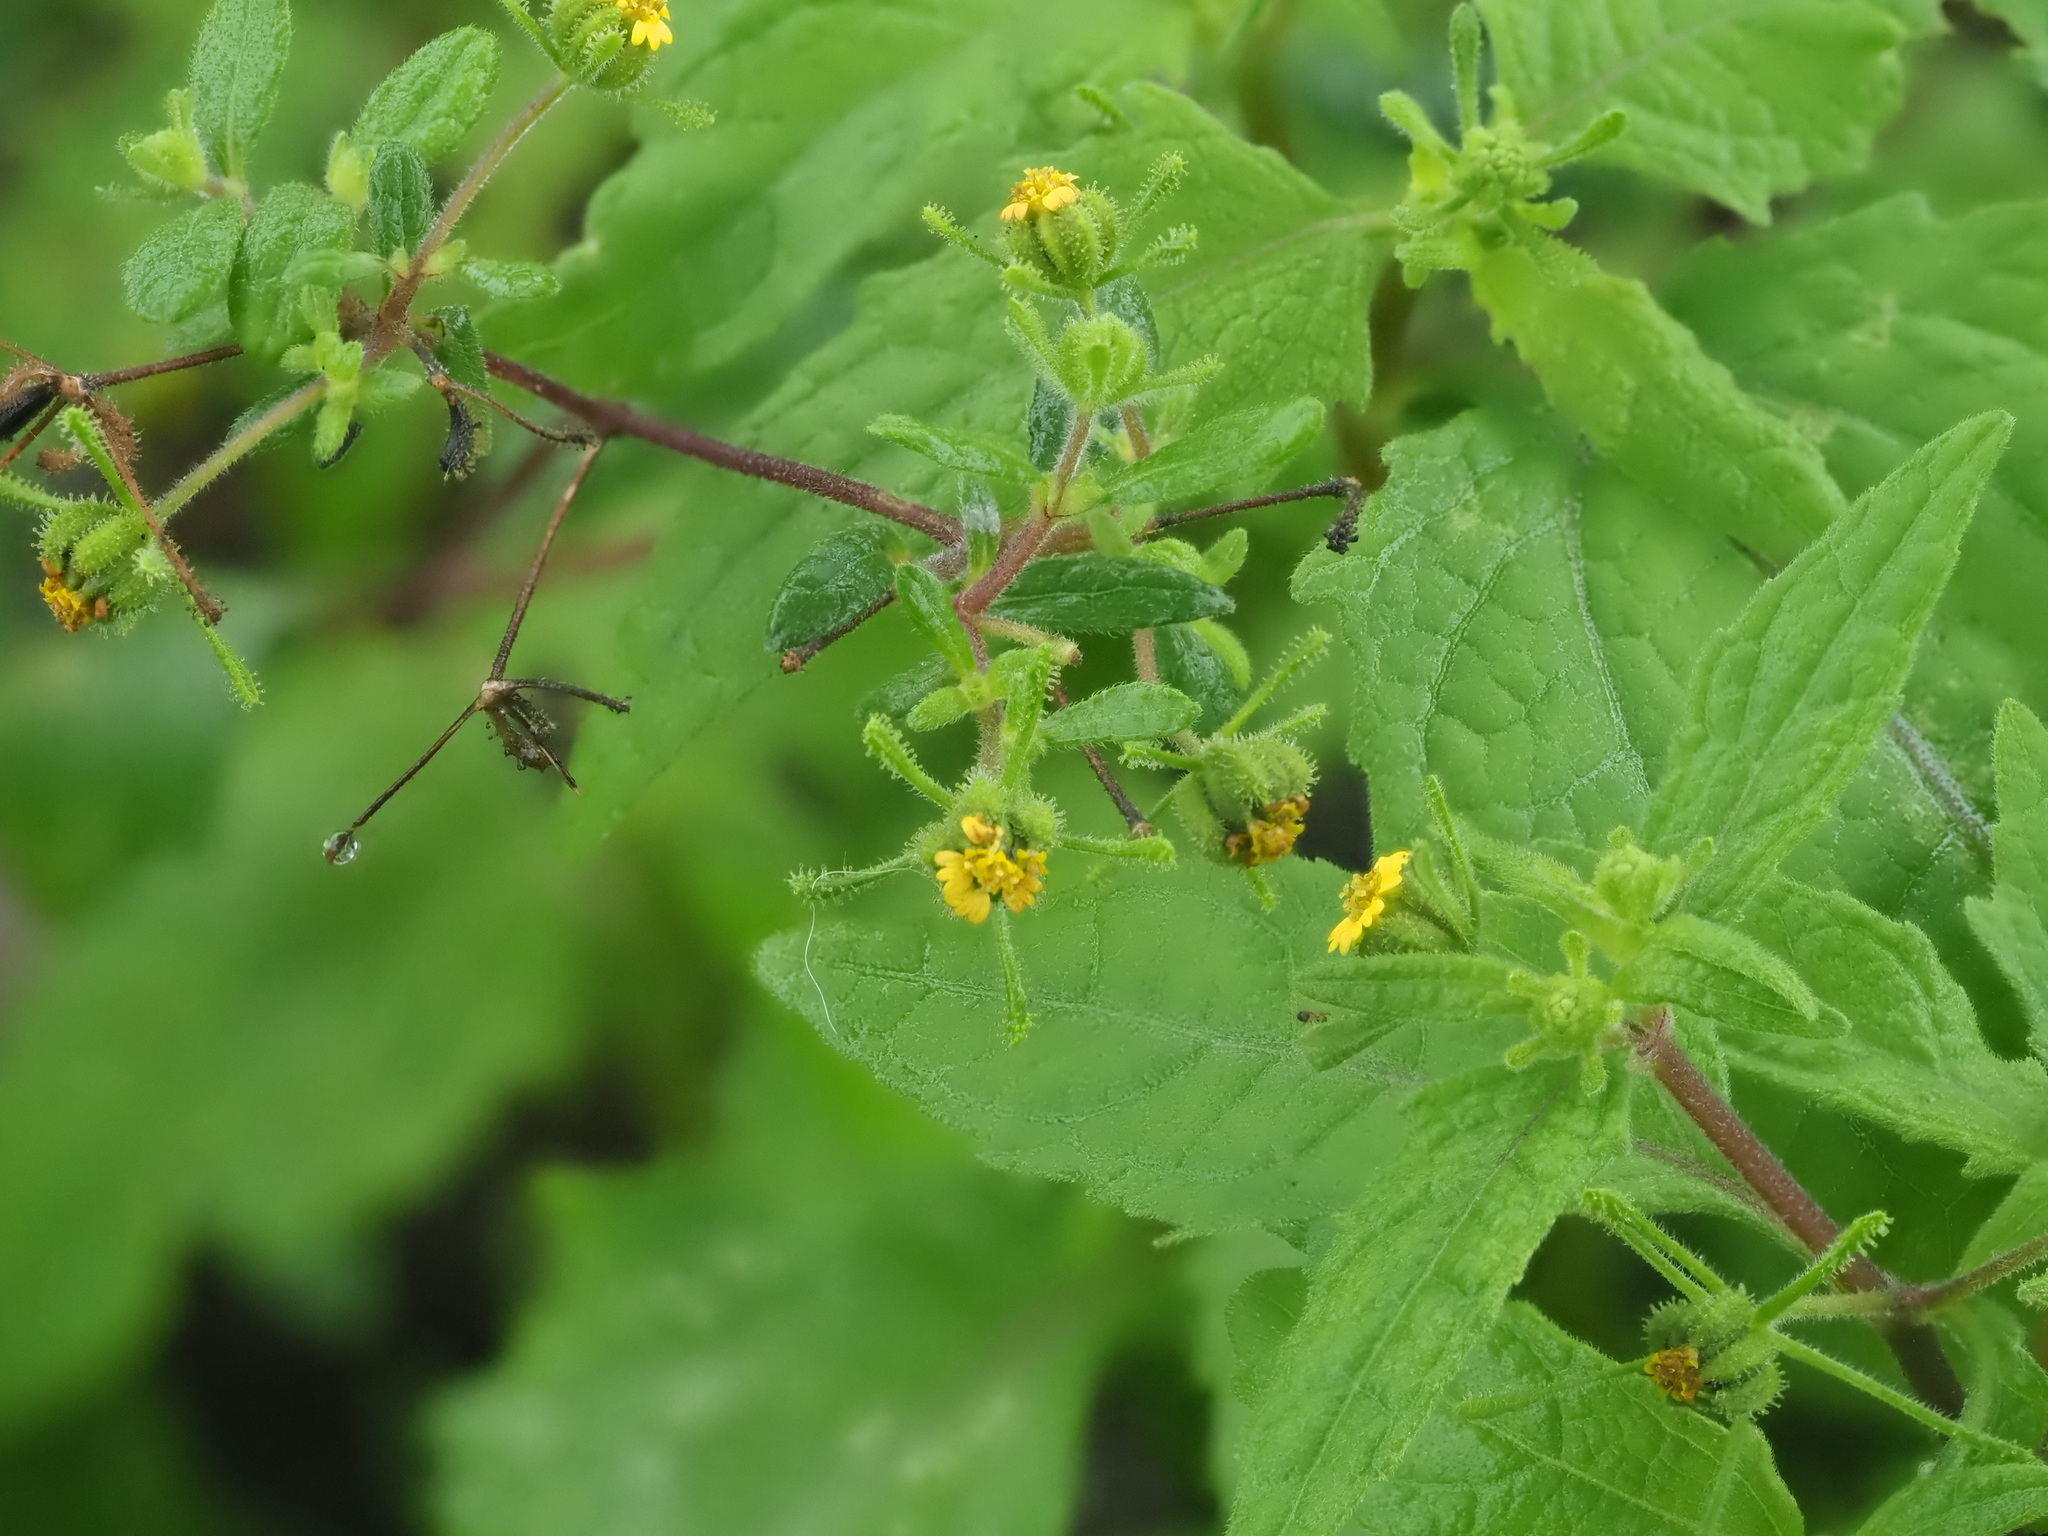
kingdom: Plantae
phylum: Tracheophyta
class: Magnoliopsida
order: Asterales
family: Asteraceae
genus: Sigesbeckia
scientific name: Sigesbeckia orientalis
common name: Eastern st paul's-wort
